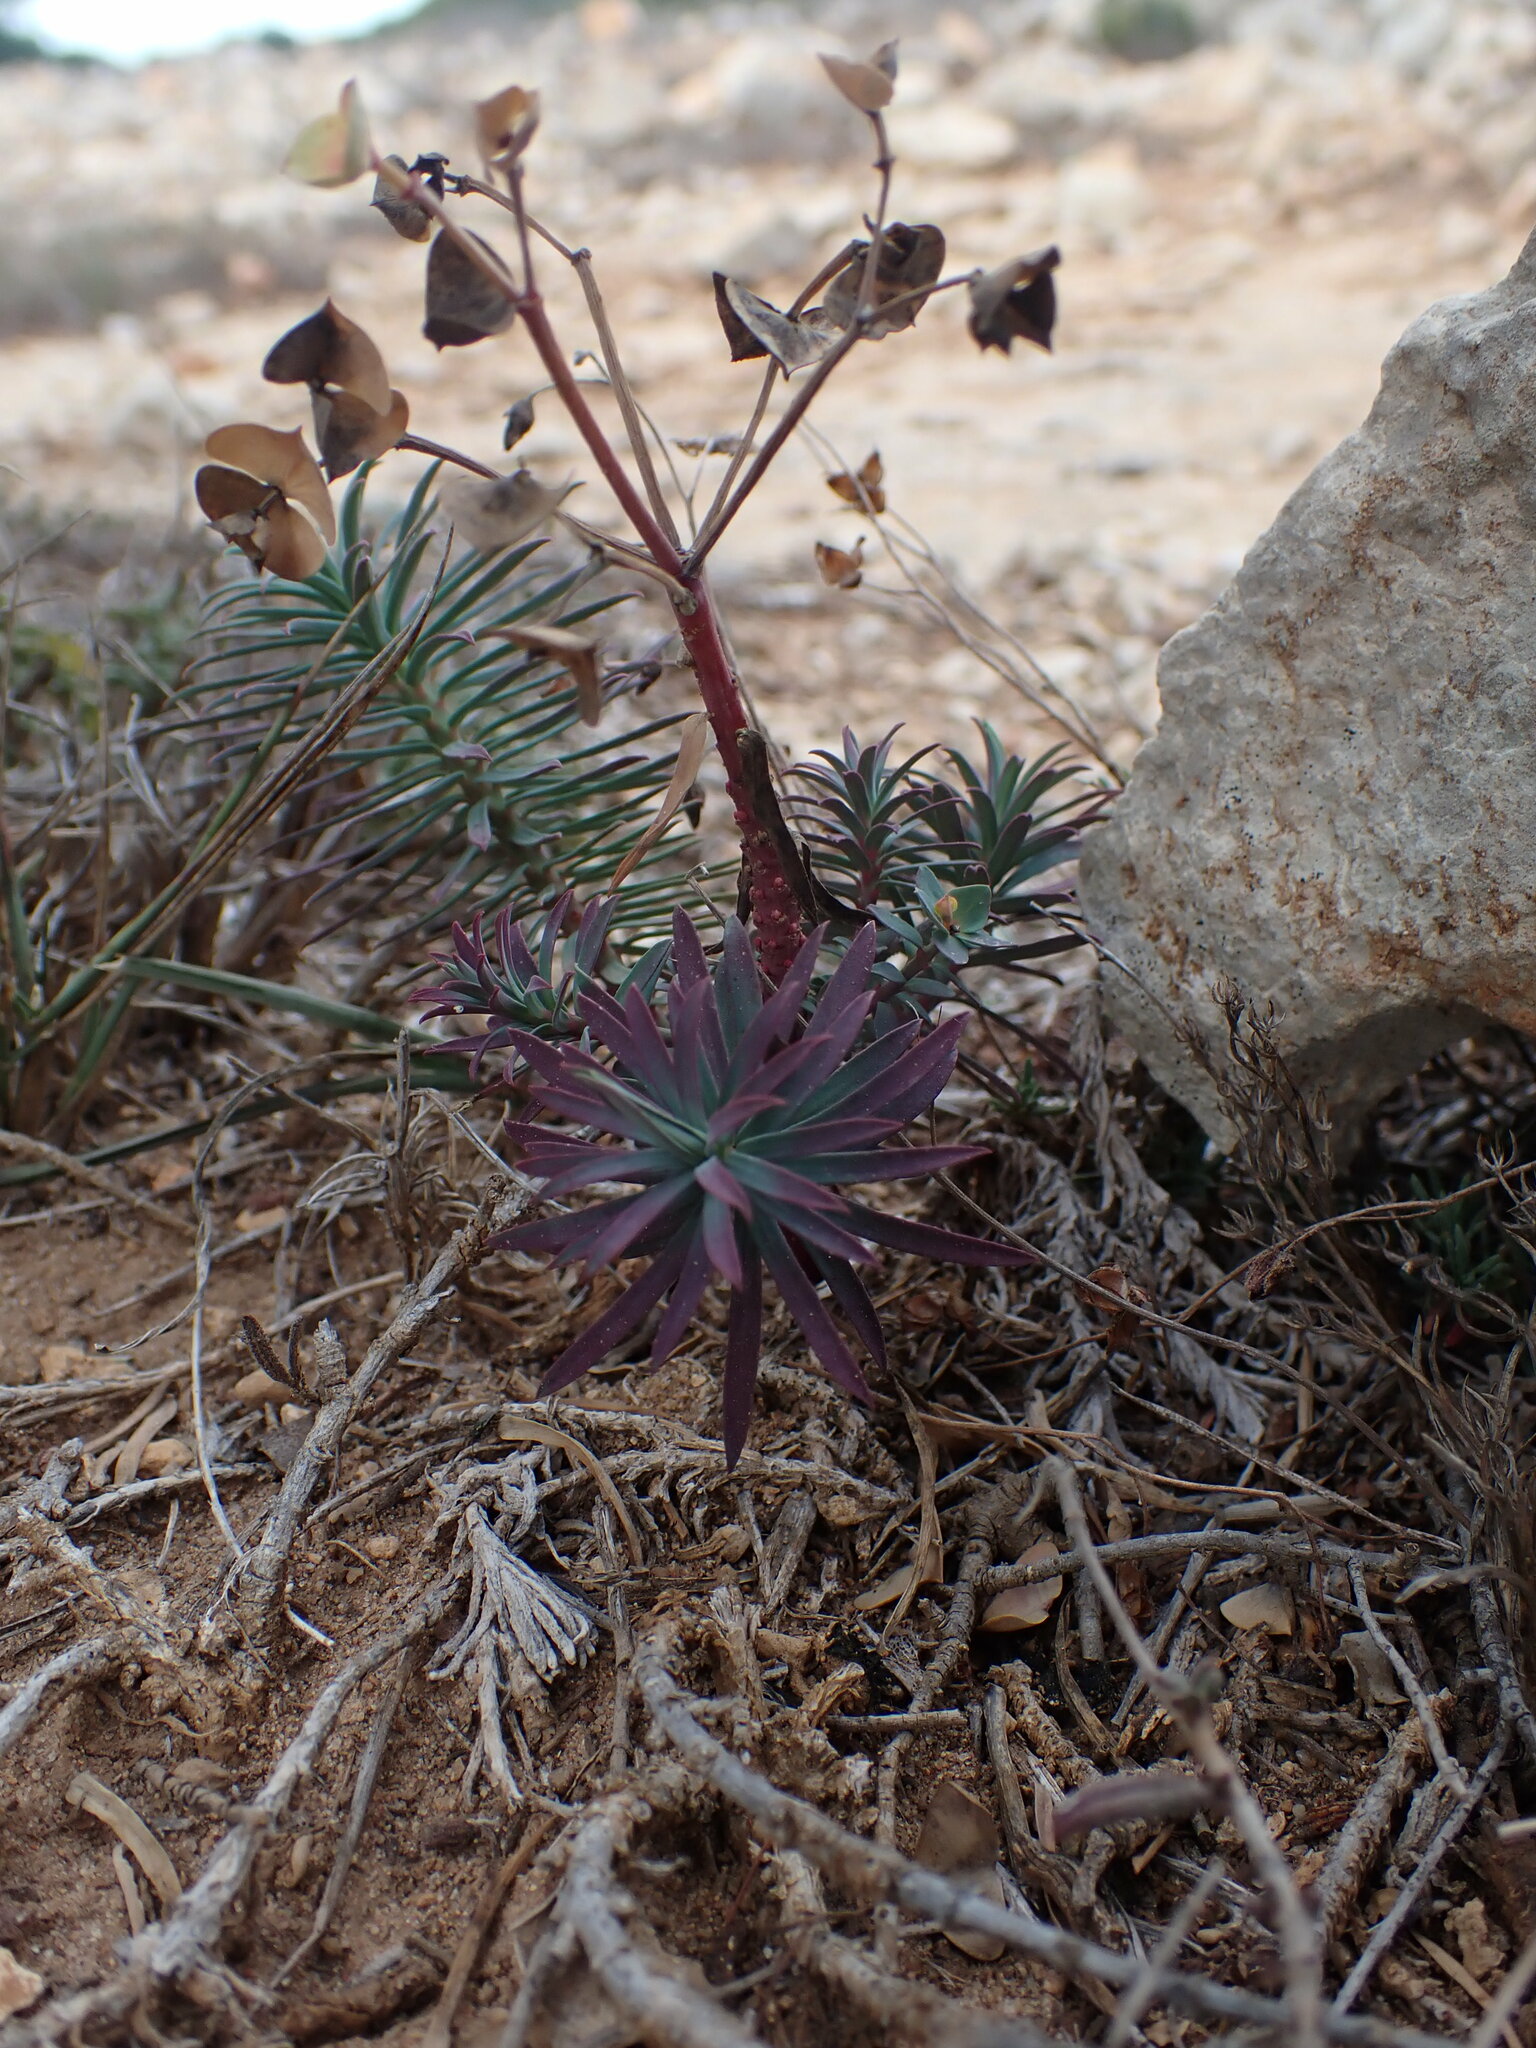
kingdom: Plantae
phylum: Tracheophyta
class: Magnoliopsida
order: Malpighiales
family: Euphorbiaceae
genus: Euphorbia
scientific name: Euphorbia segetalis
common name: Corn spurge
